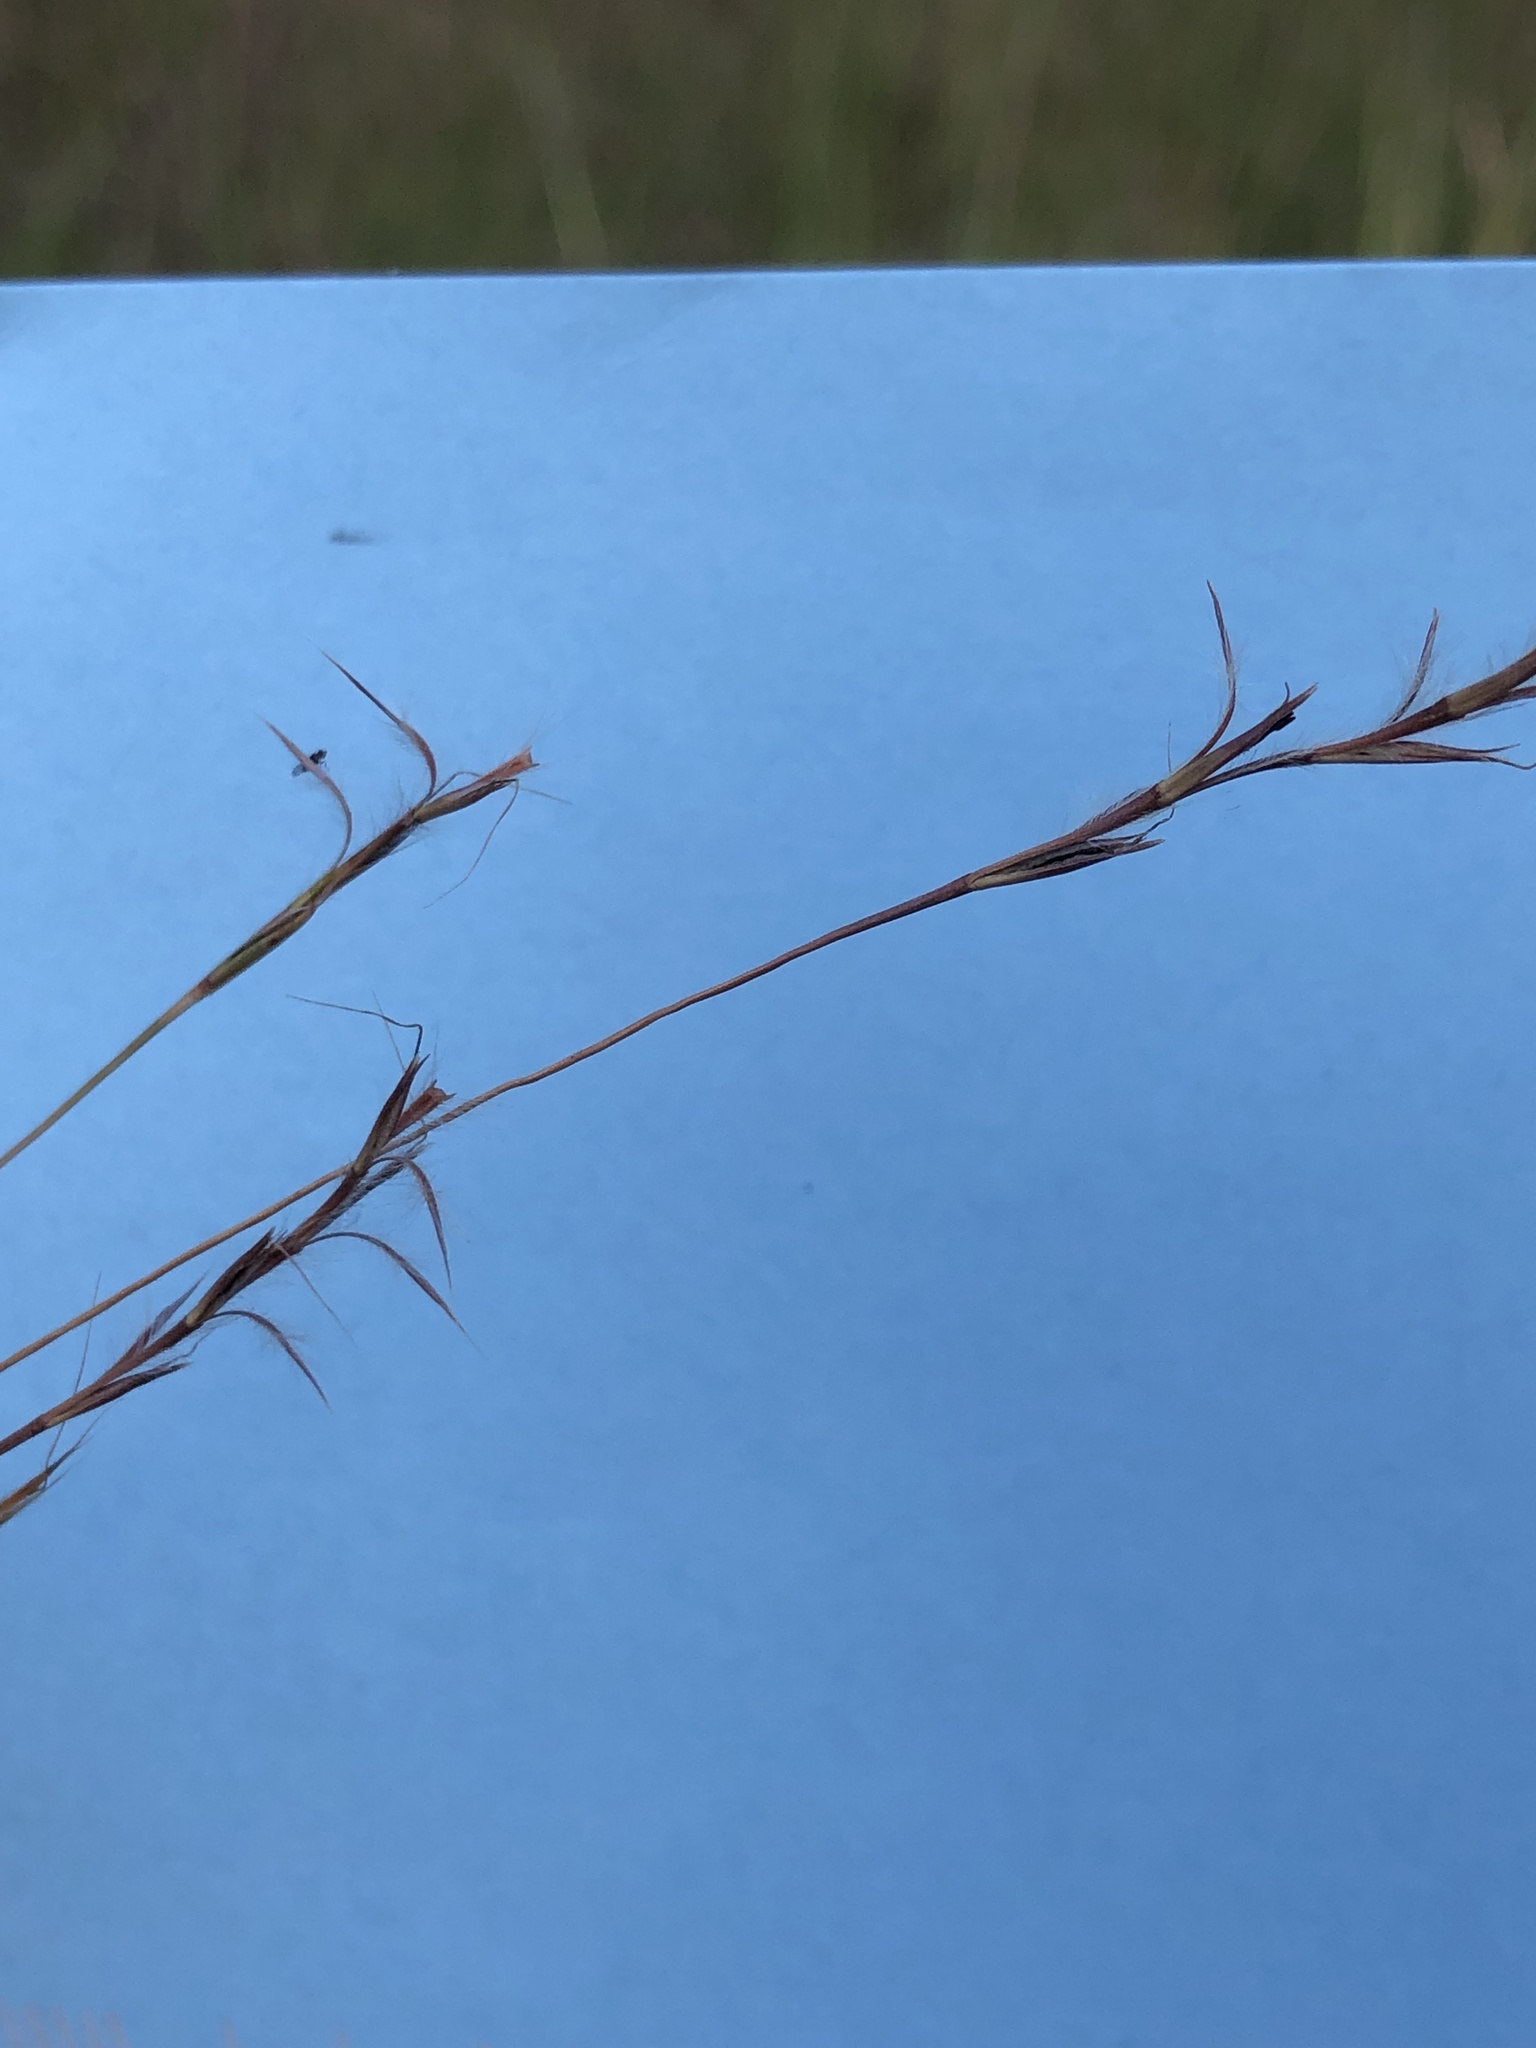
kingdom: Plantae
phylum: Tracheophyta
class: Liliopsida
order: Poales
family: Poaceae
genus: Schizachyrium
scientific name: Schizachyrium scoparium
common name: Little bluestem
